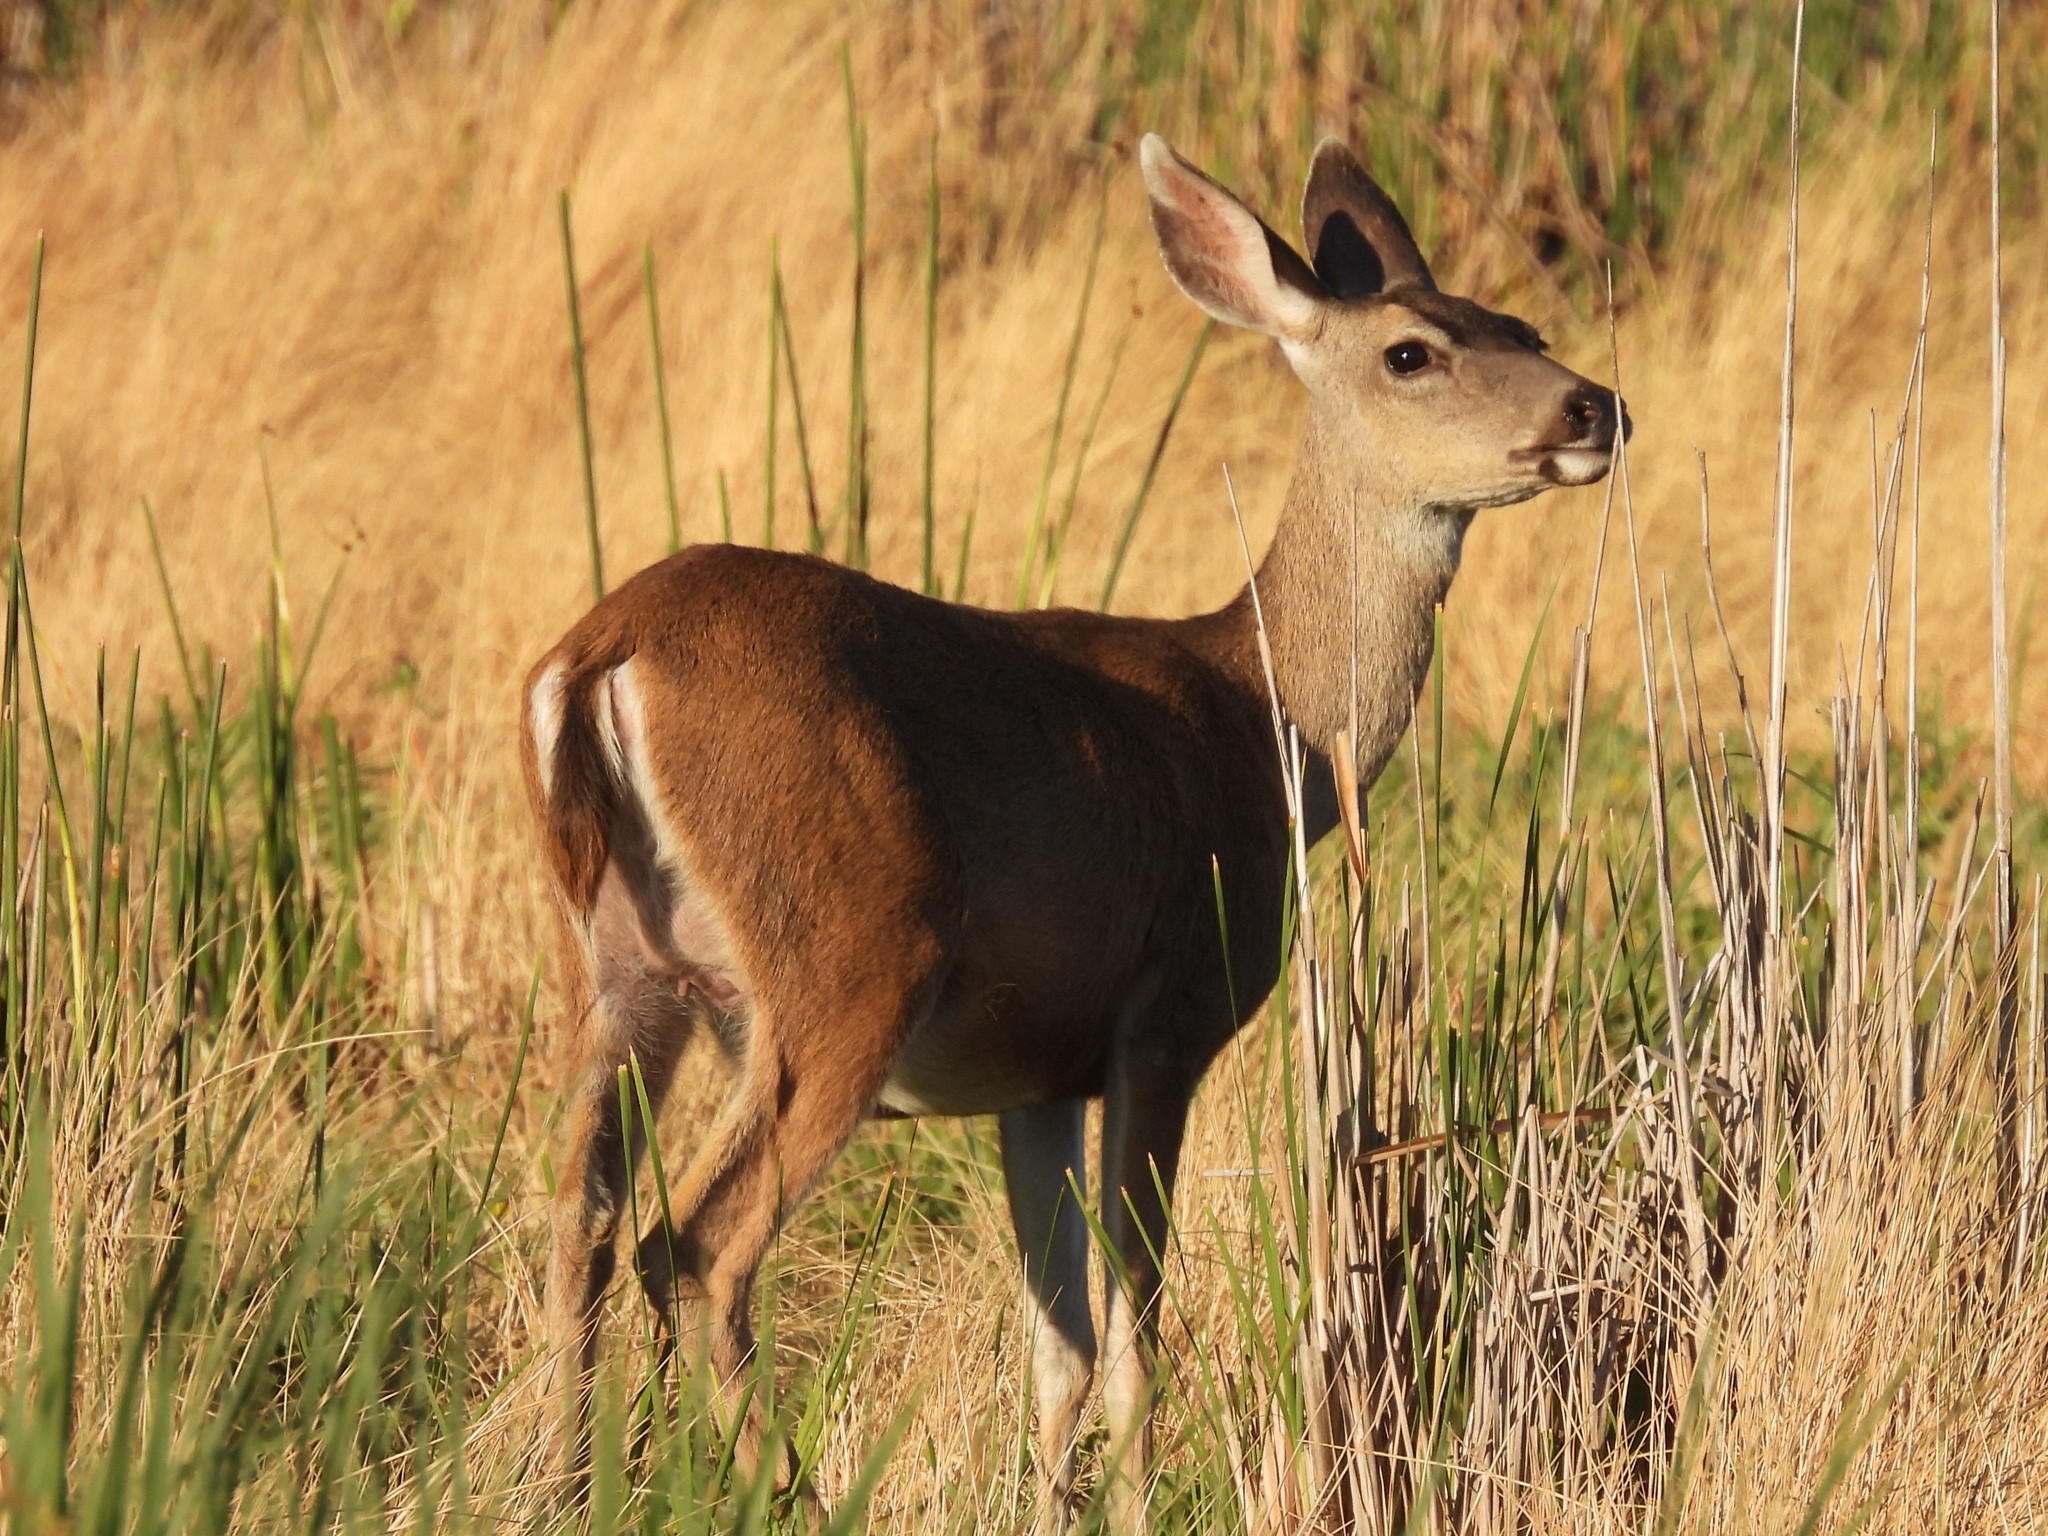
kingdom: Animalia
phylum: Chordata
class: Mammalia
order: Artiodactyla
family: Cervidae
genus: Odocoileus
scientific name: Odocoileus hemionus
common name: Mule deer
